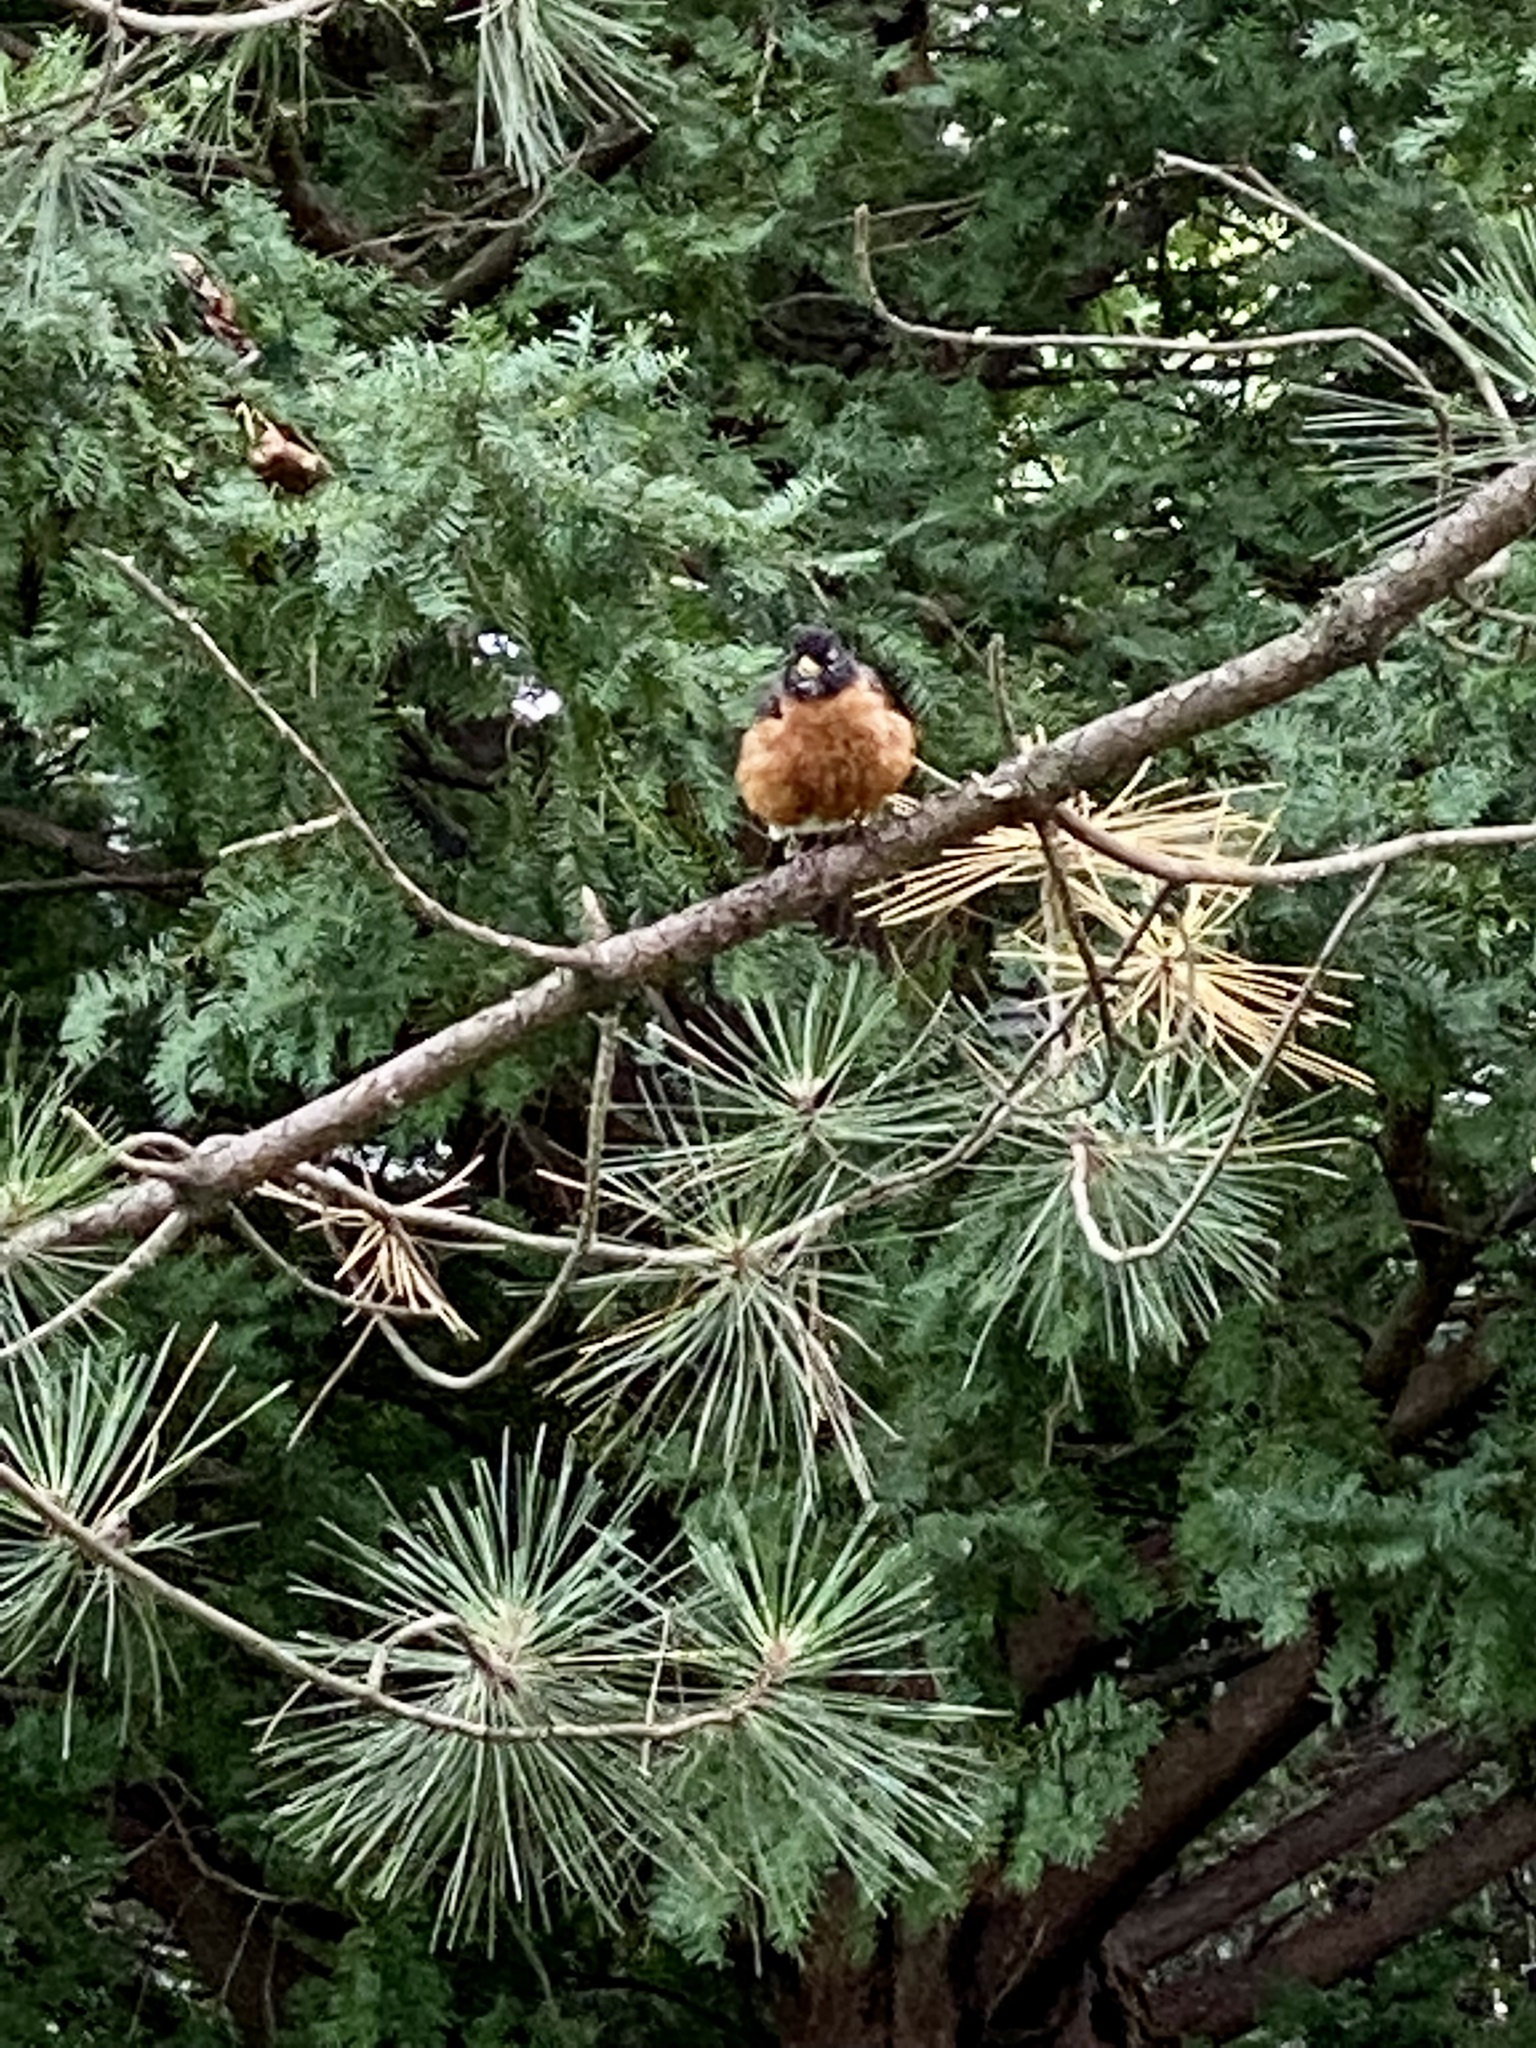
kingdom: Animalia
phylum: Chordata
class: Aves
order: Passeriformes
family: Turdidae
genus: Turdus
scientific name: Turdus migratorius
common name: American robin
